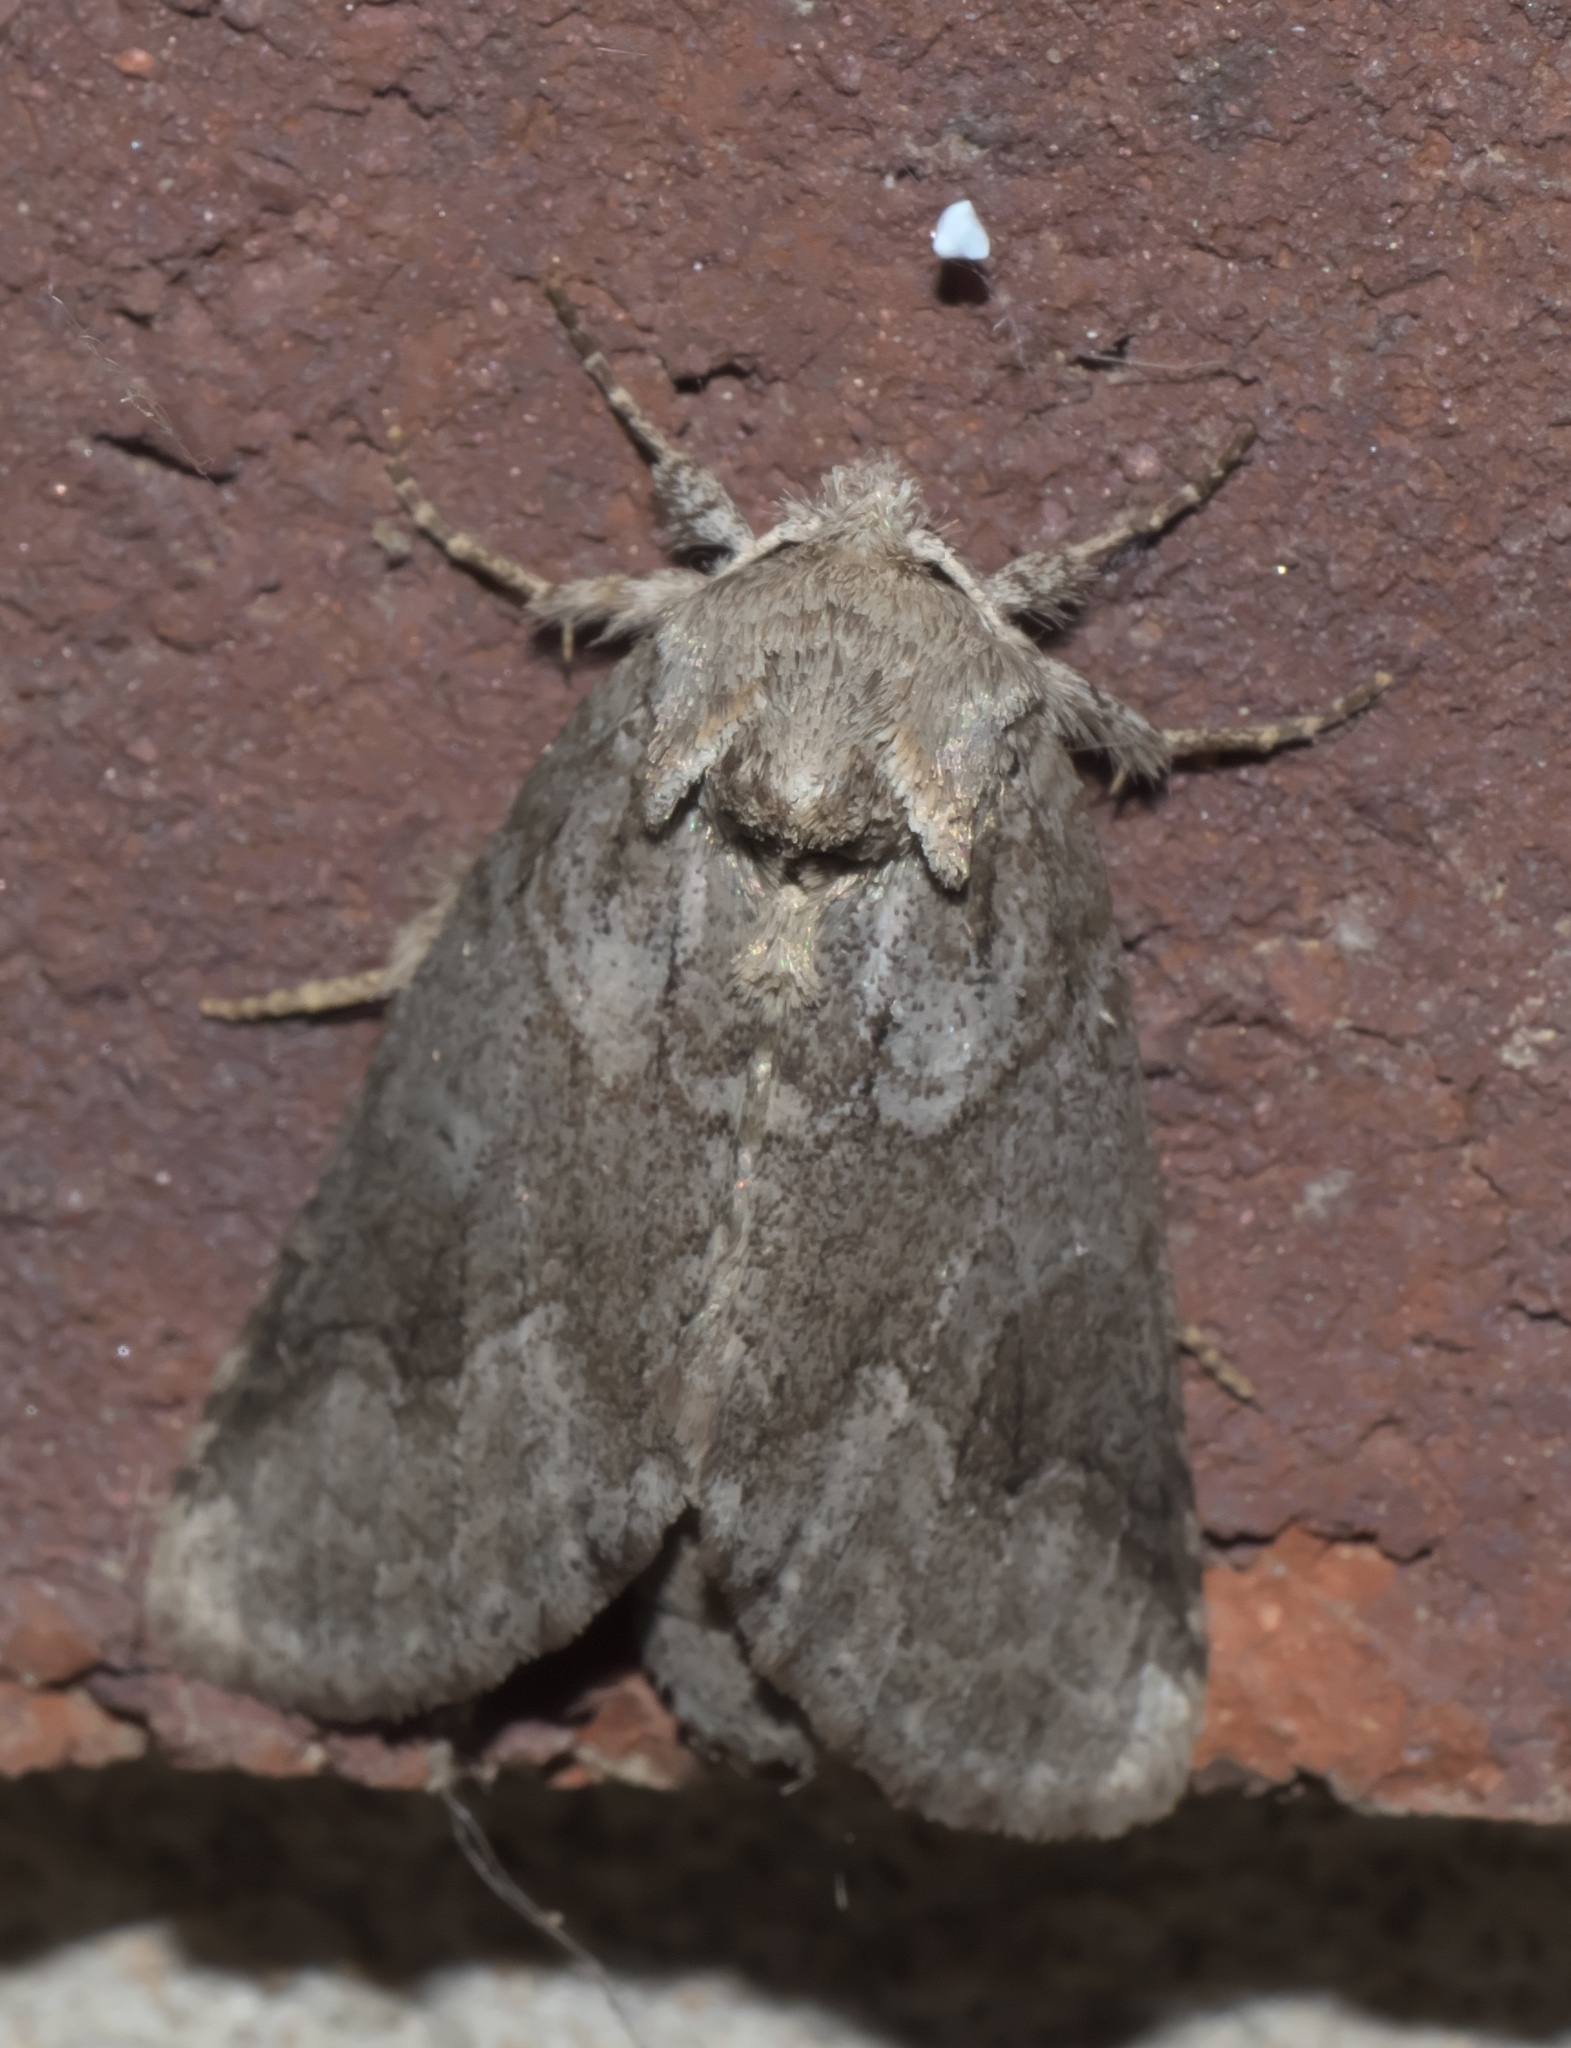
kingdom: Animalia
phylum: Arthropoda
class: Insecta
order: Lepidoptera
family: Notodontidae
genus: Lochmaeus
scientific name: Lochmaeus bilineata
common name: Double-lined prominent
